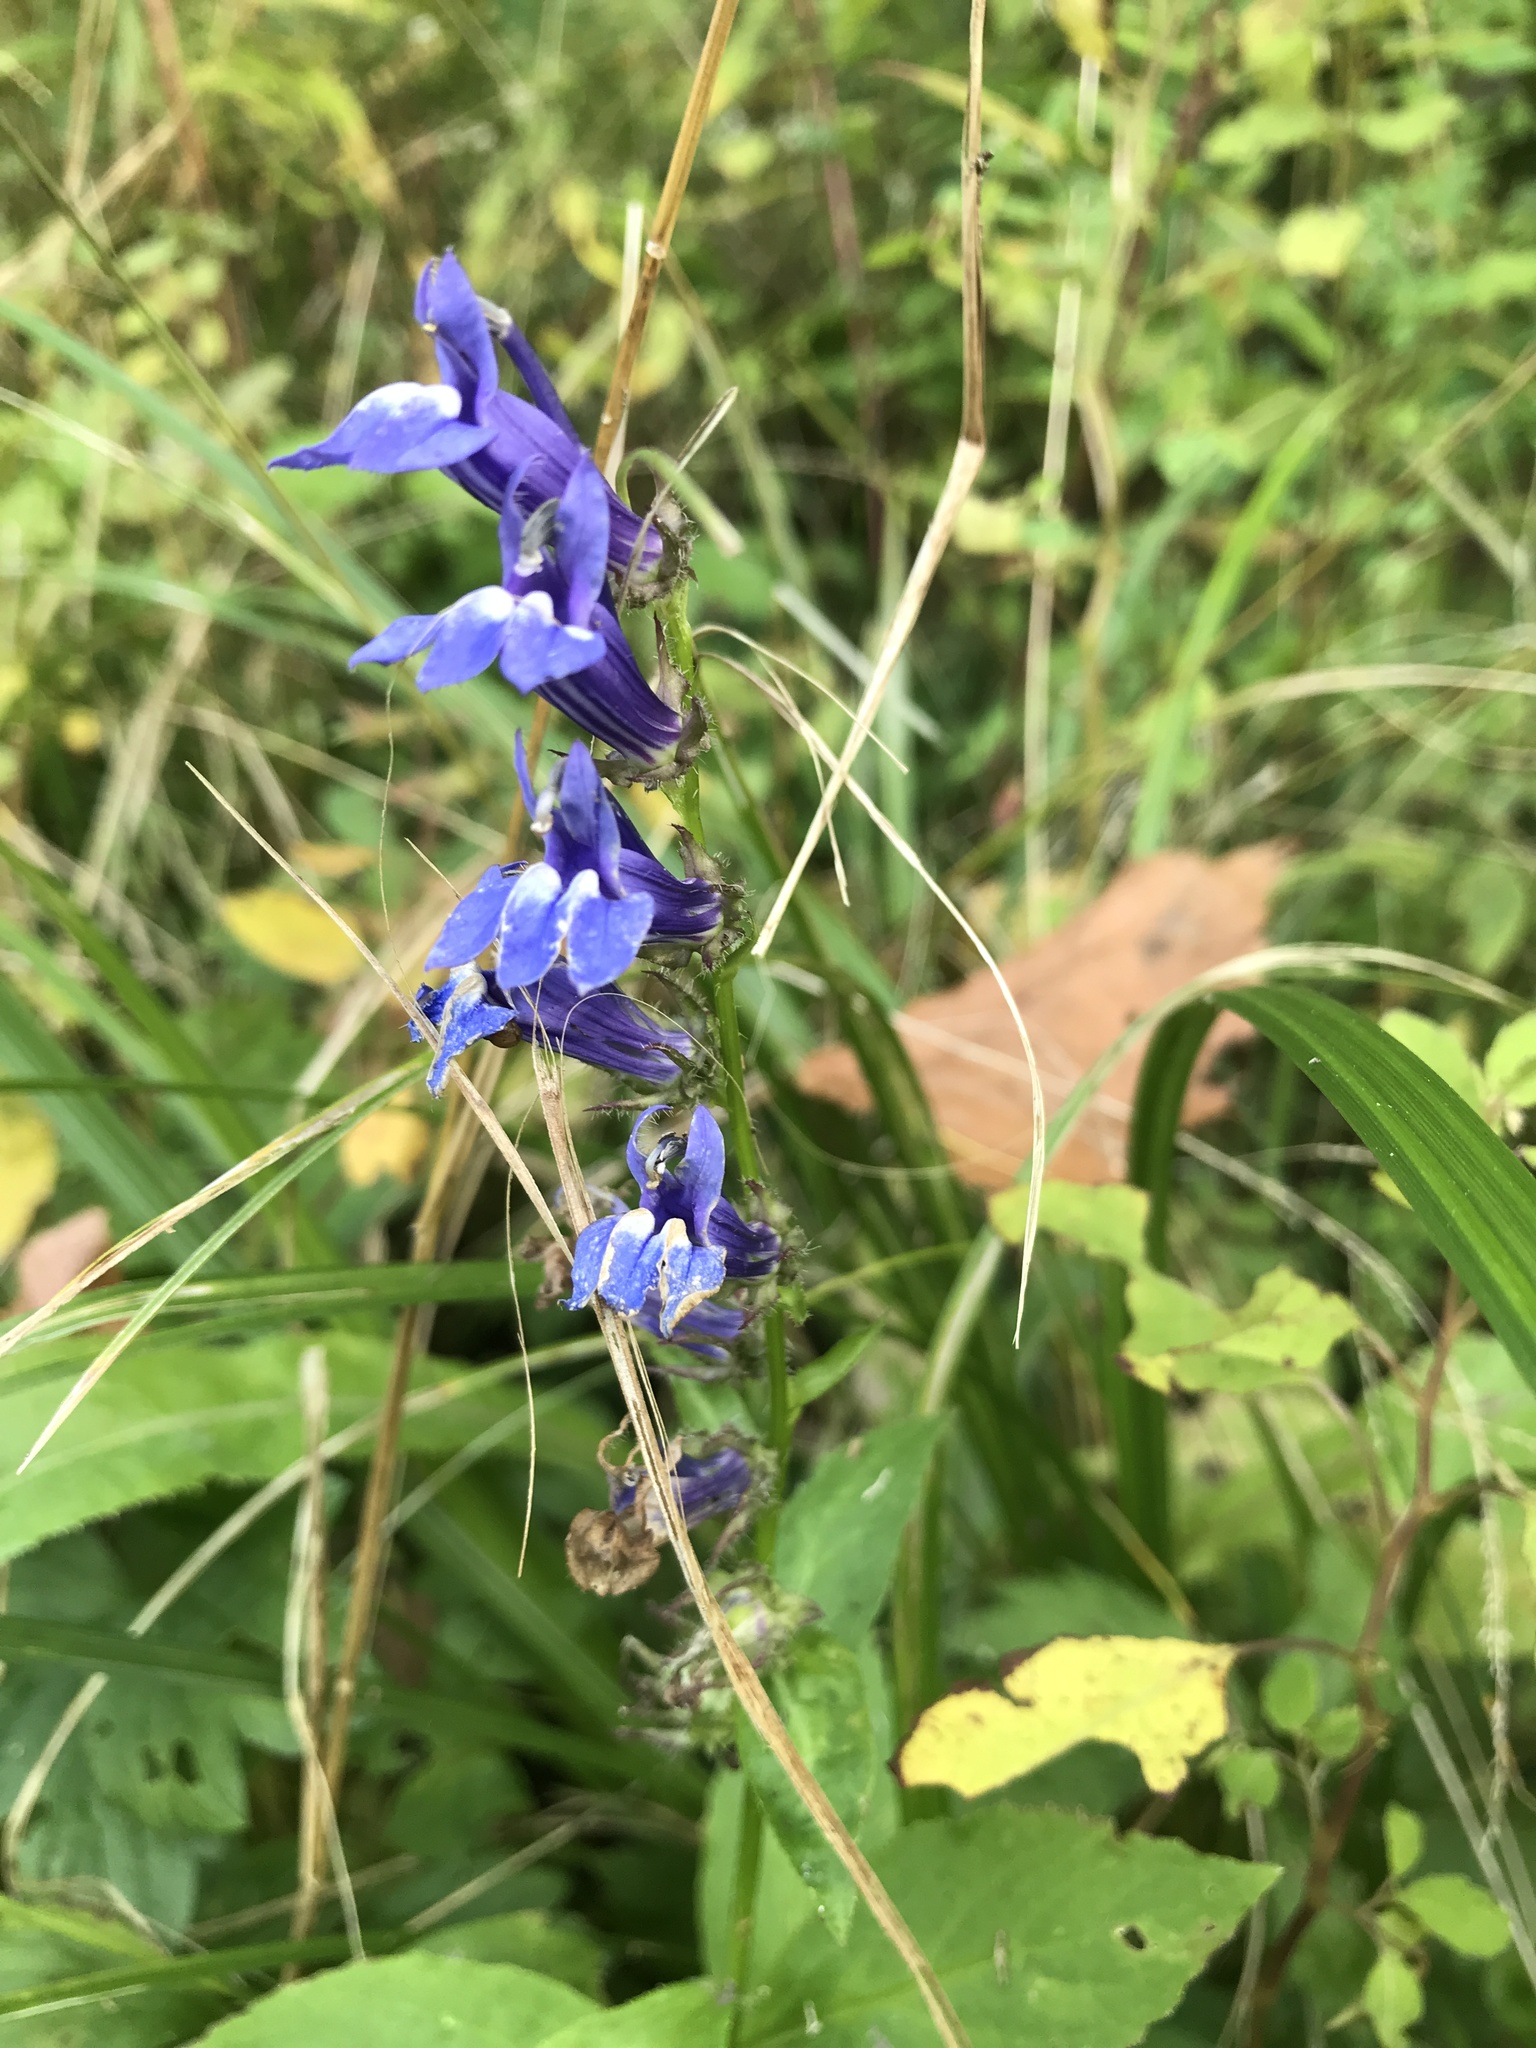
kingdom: Plantae
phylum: Tracheophyta
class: Magnoliopsida
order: Asterales
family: Campanulaceae
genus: Lobelia
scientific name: Lobelia siphilitica
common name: Great lobelia
